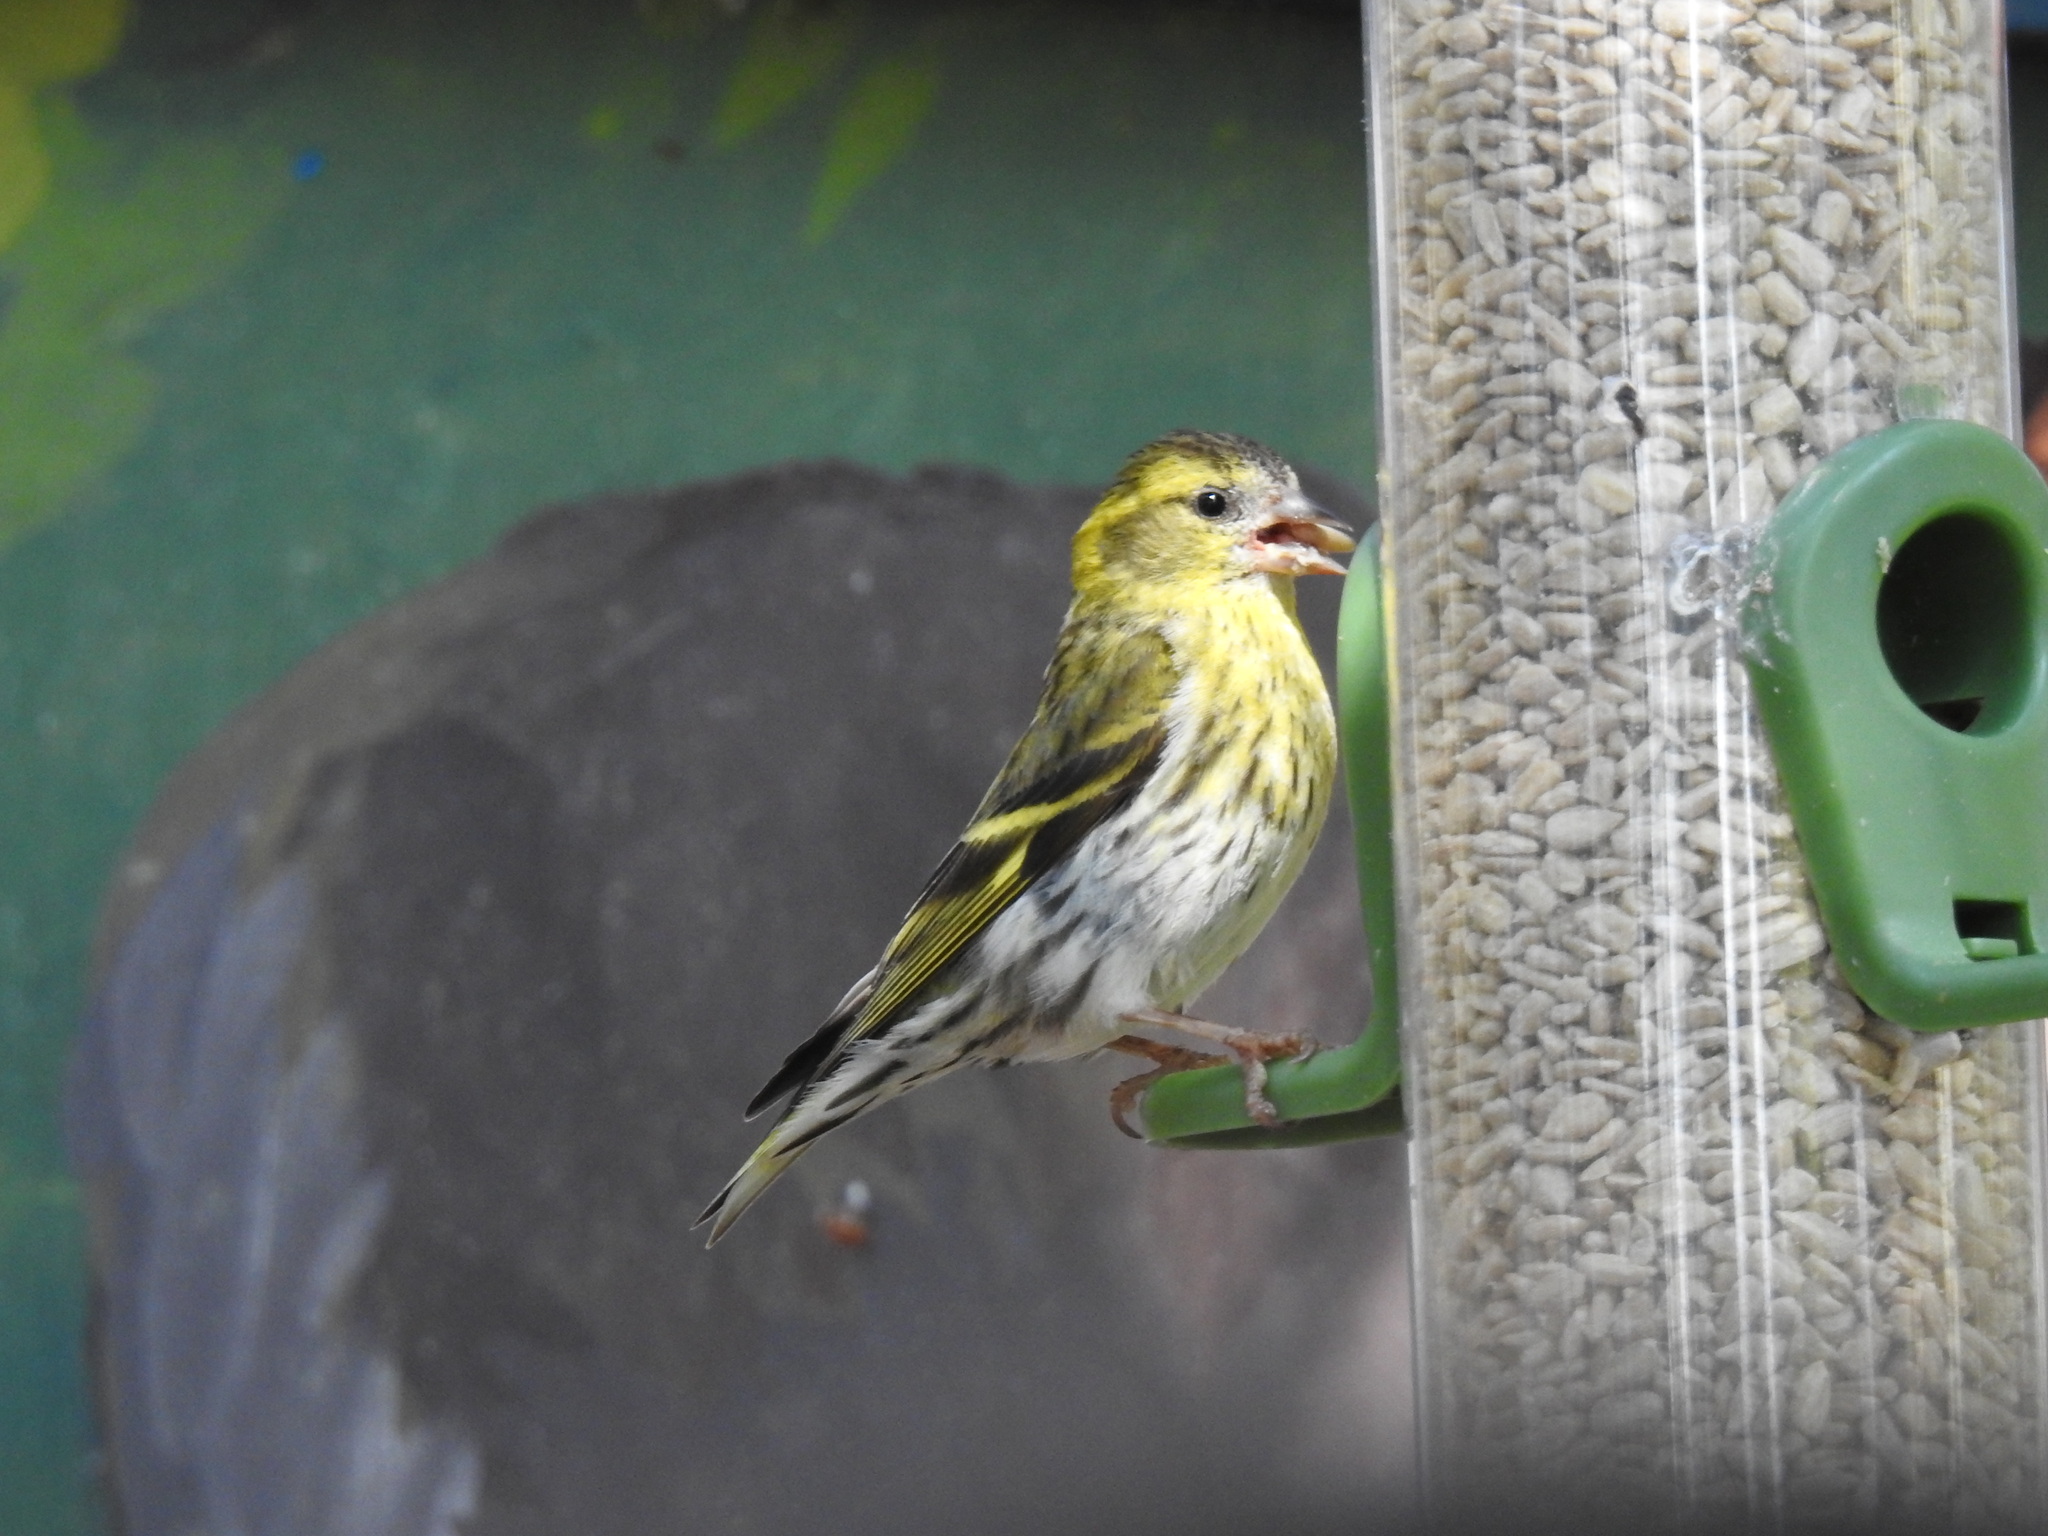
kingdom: Animalia
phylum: Chordata
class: Aves
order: Passeriformes
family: Fringillidae
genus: Spinus
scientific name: Spinus spinus
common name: Eurasian siskin
